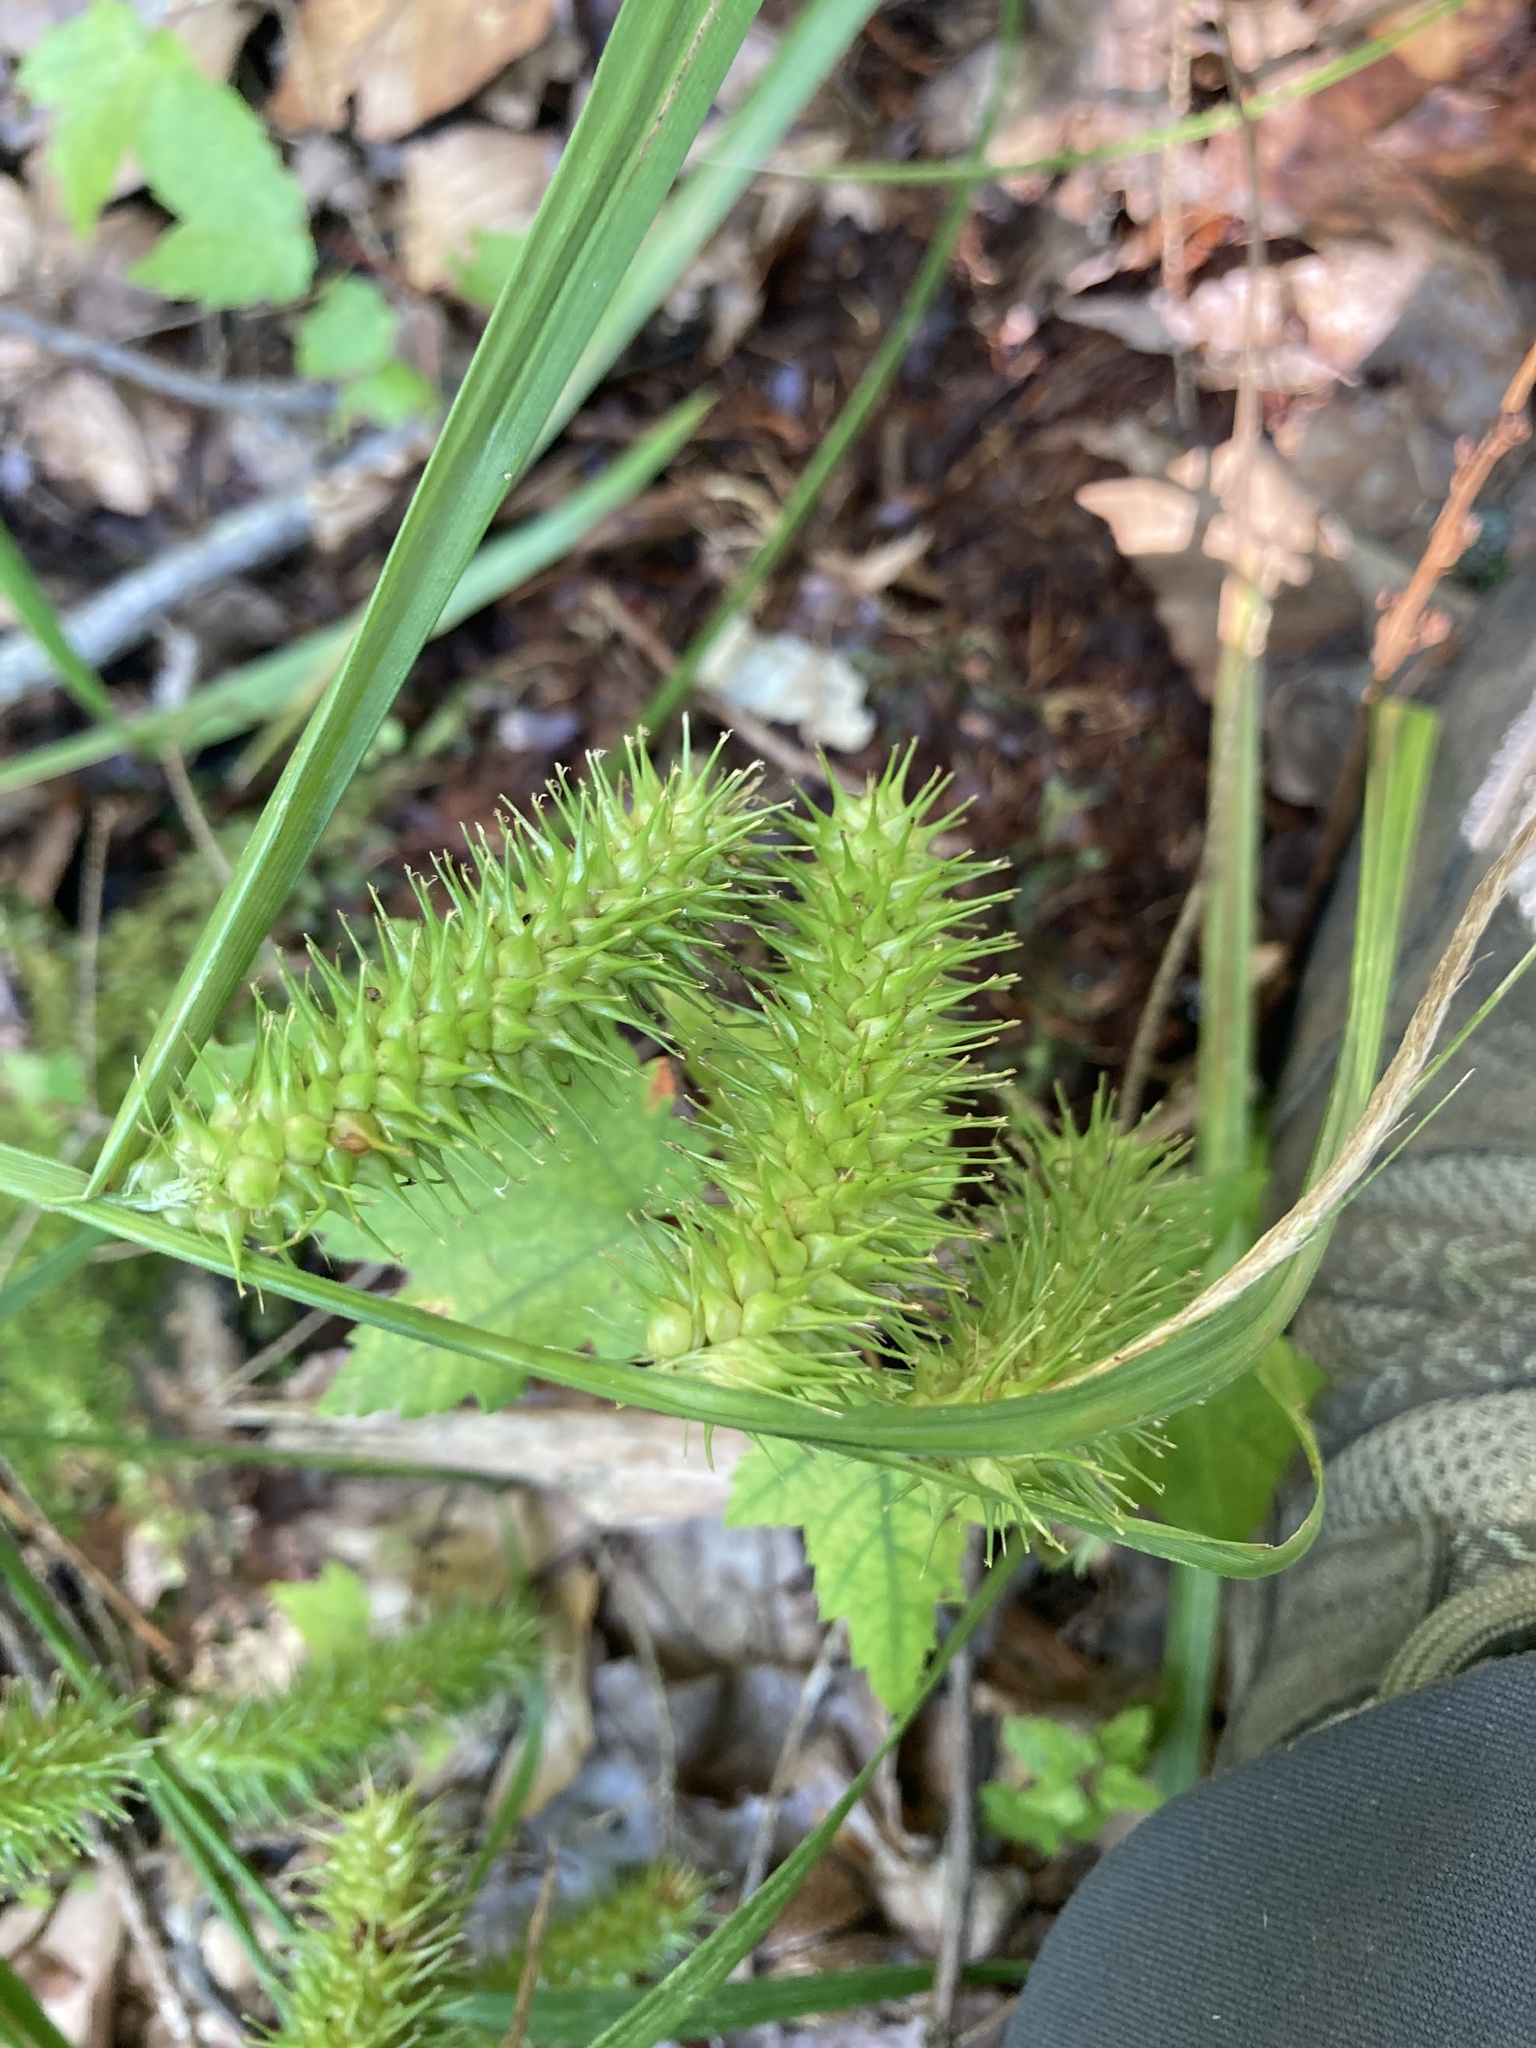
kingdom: Plantae
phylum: Tracheophyta
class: Liliopsida
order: Poales
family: Cyperaceae
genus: Carex
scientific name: Carex lurida
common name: Sallow sedge
